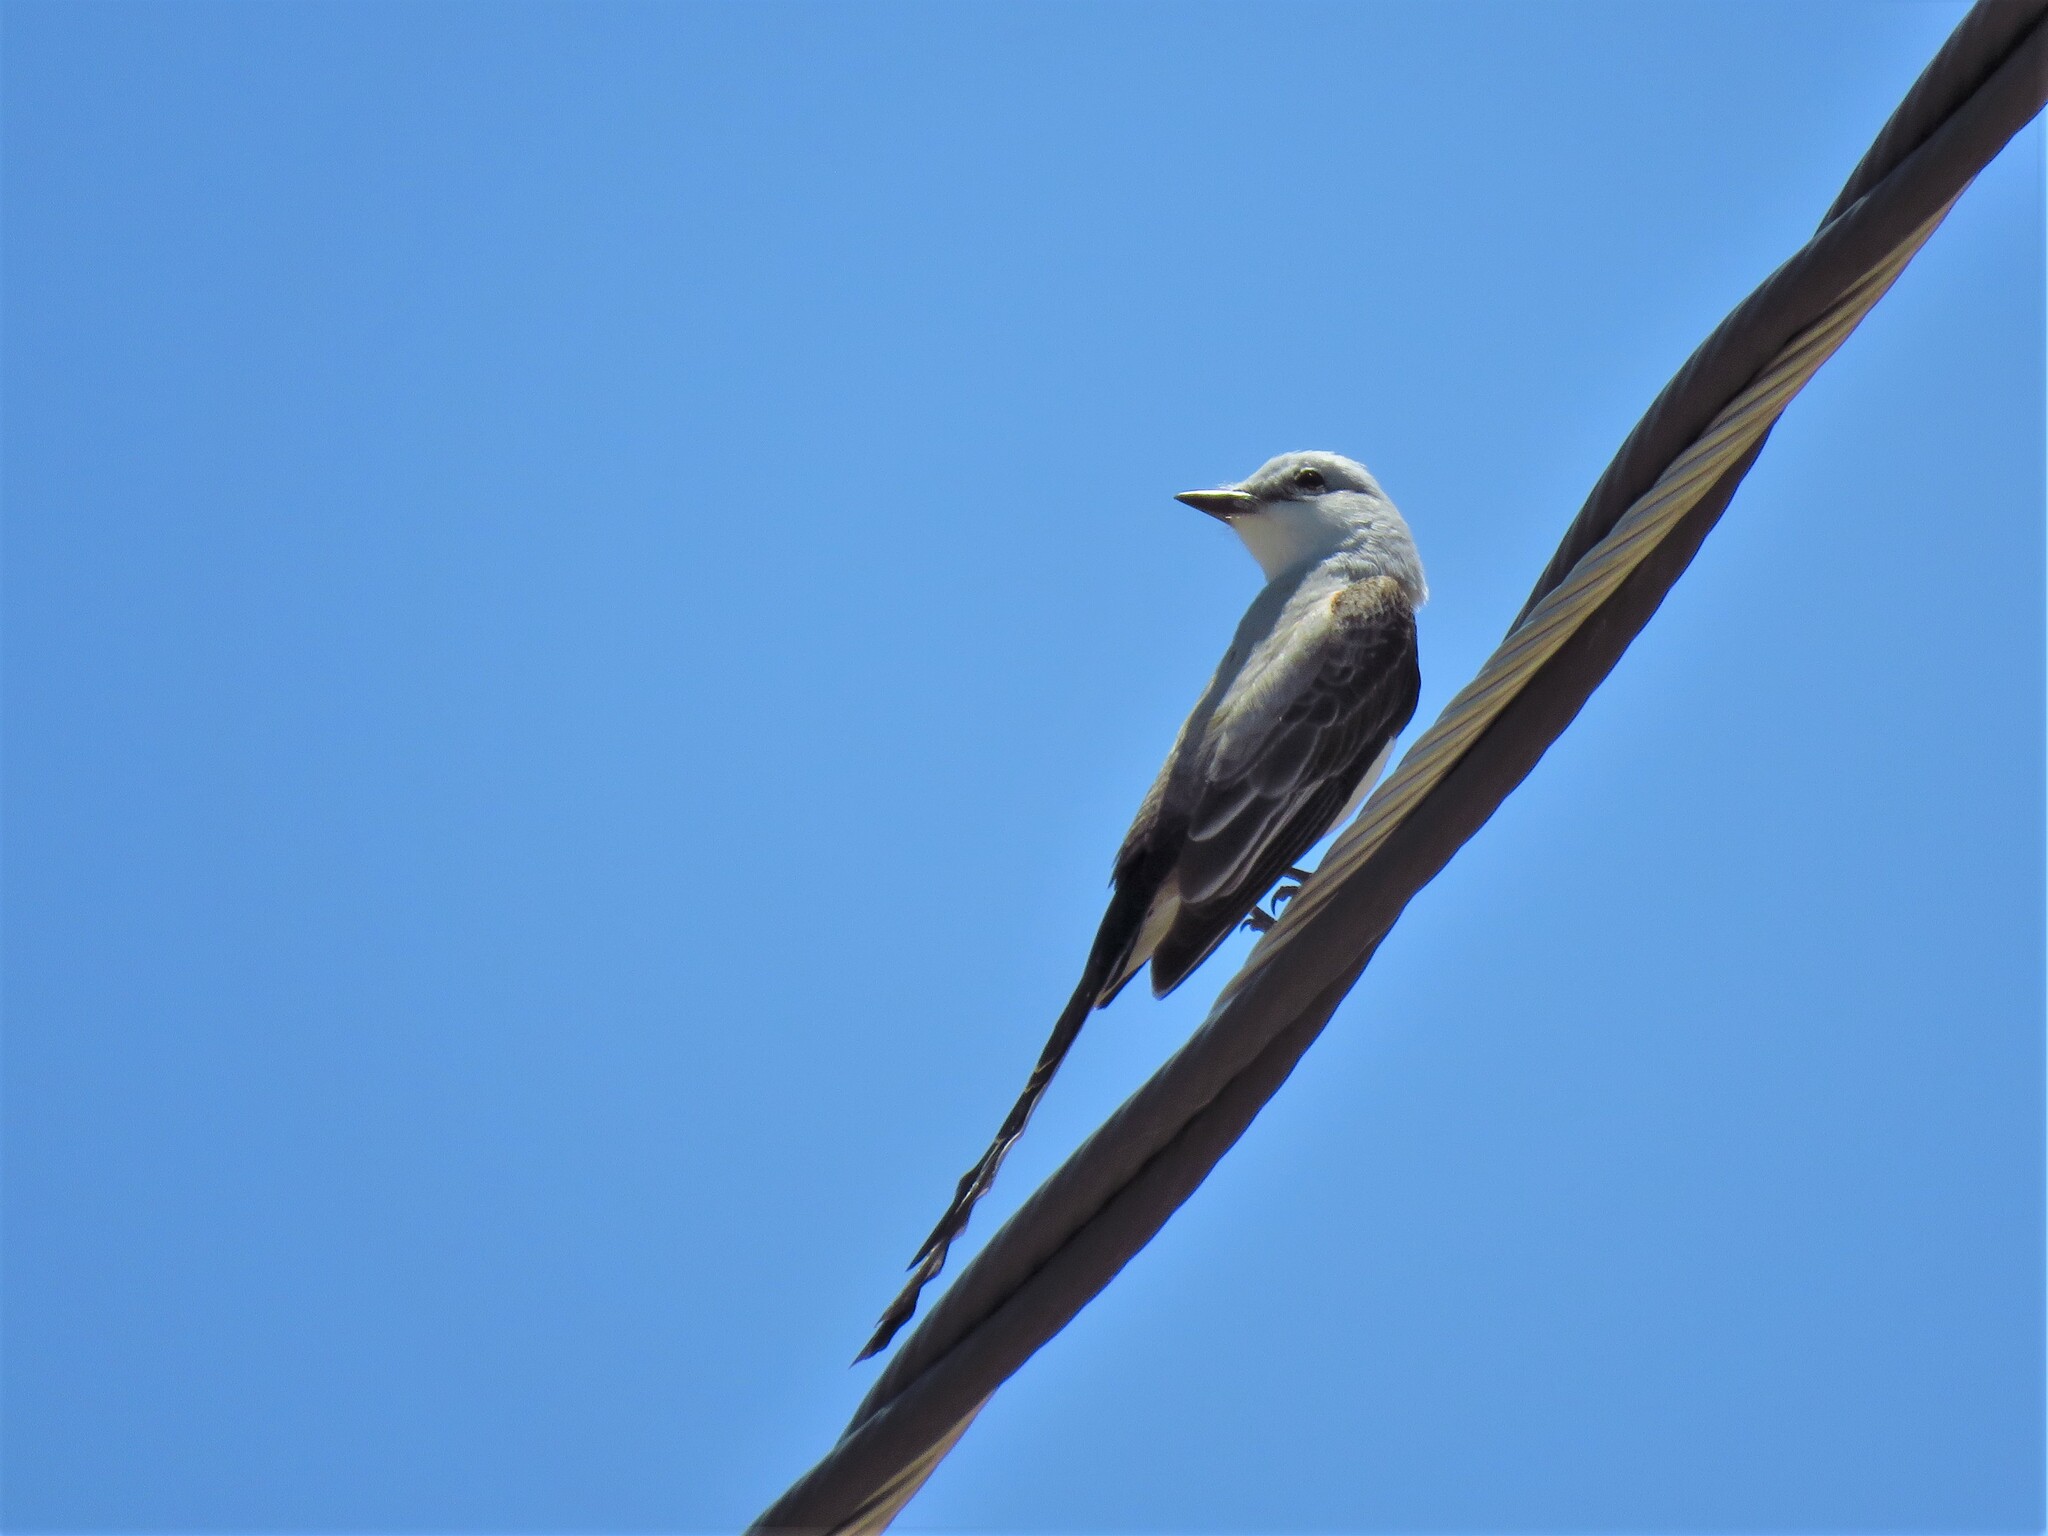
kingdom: Animalia
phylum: Chordata
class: Aves
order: Passeriformes
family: Tyrannidae
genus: Tyrannus
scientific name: Tyrannus forficatus
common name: Scissor-tailed flycatcher
